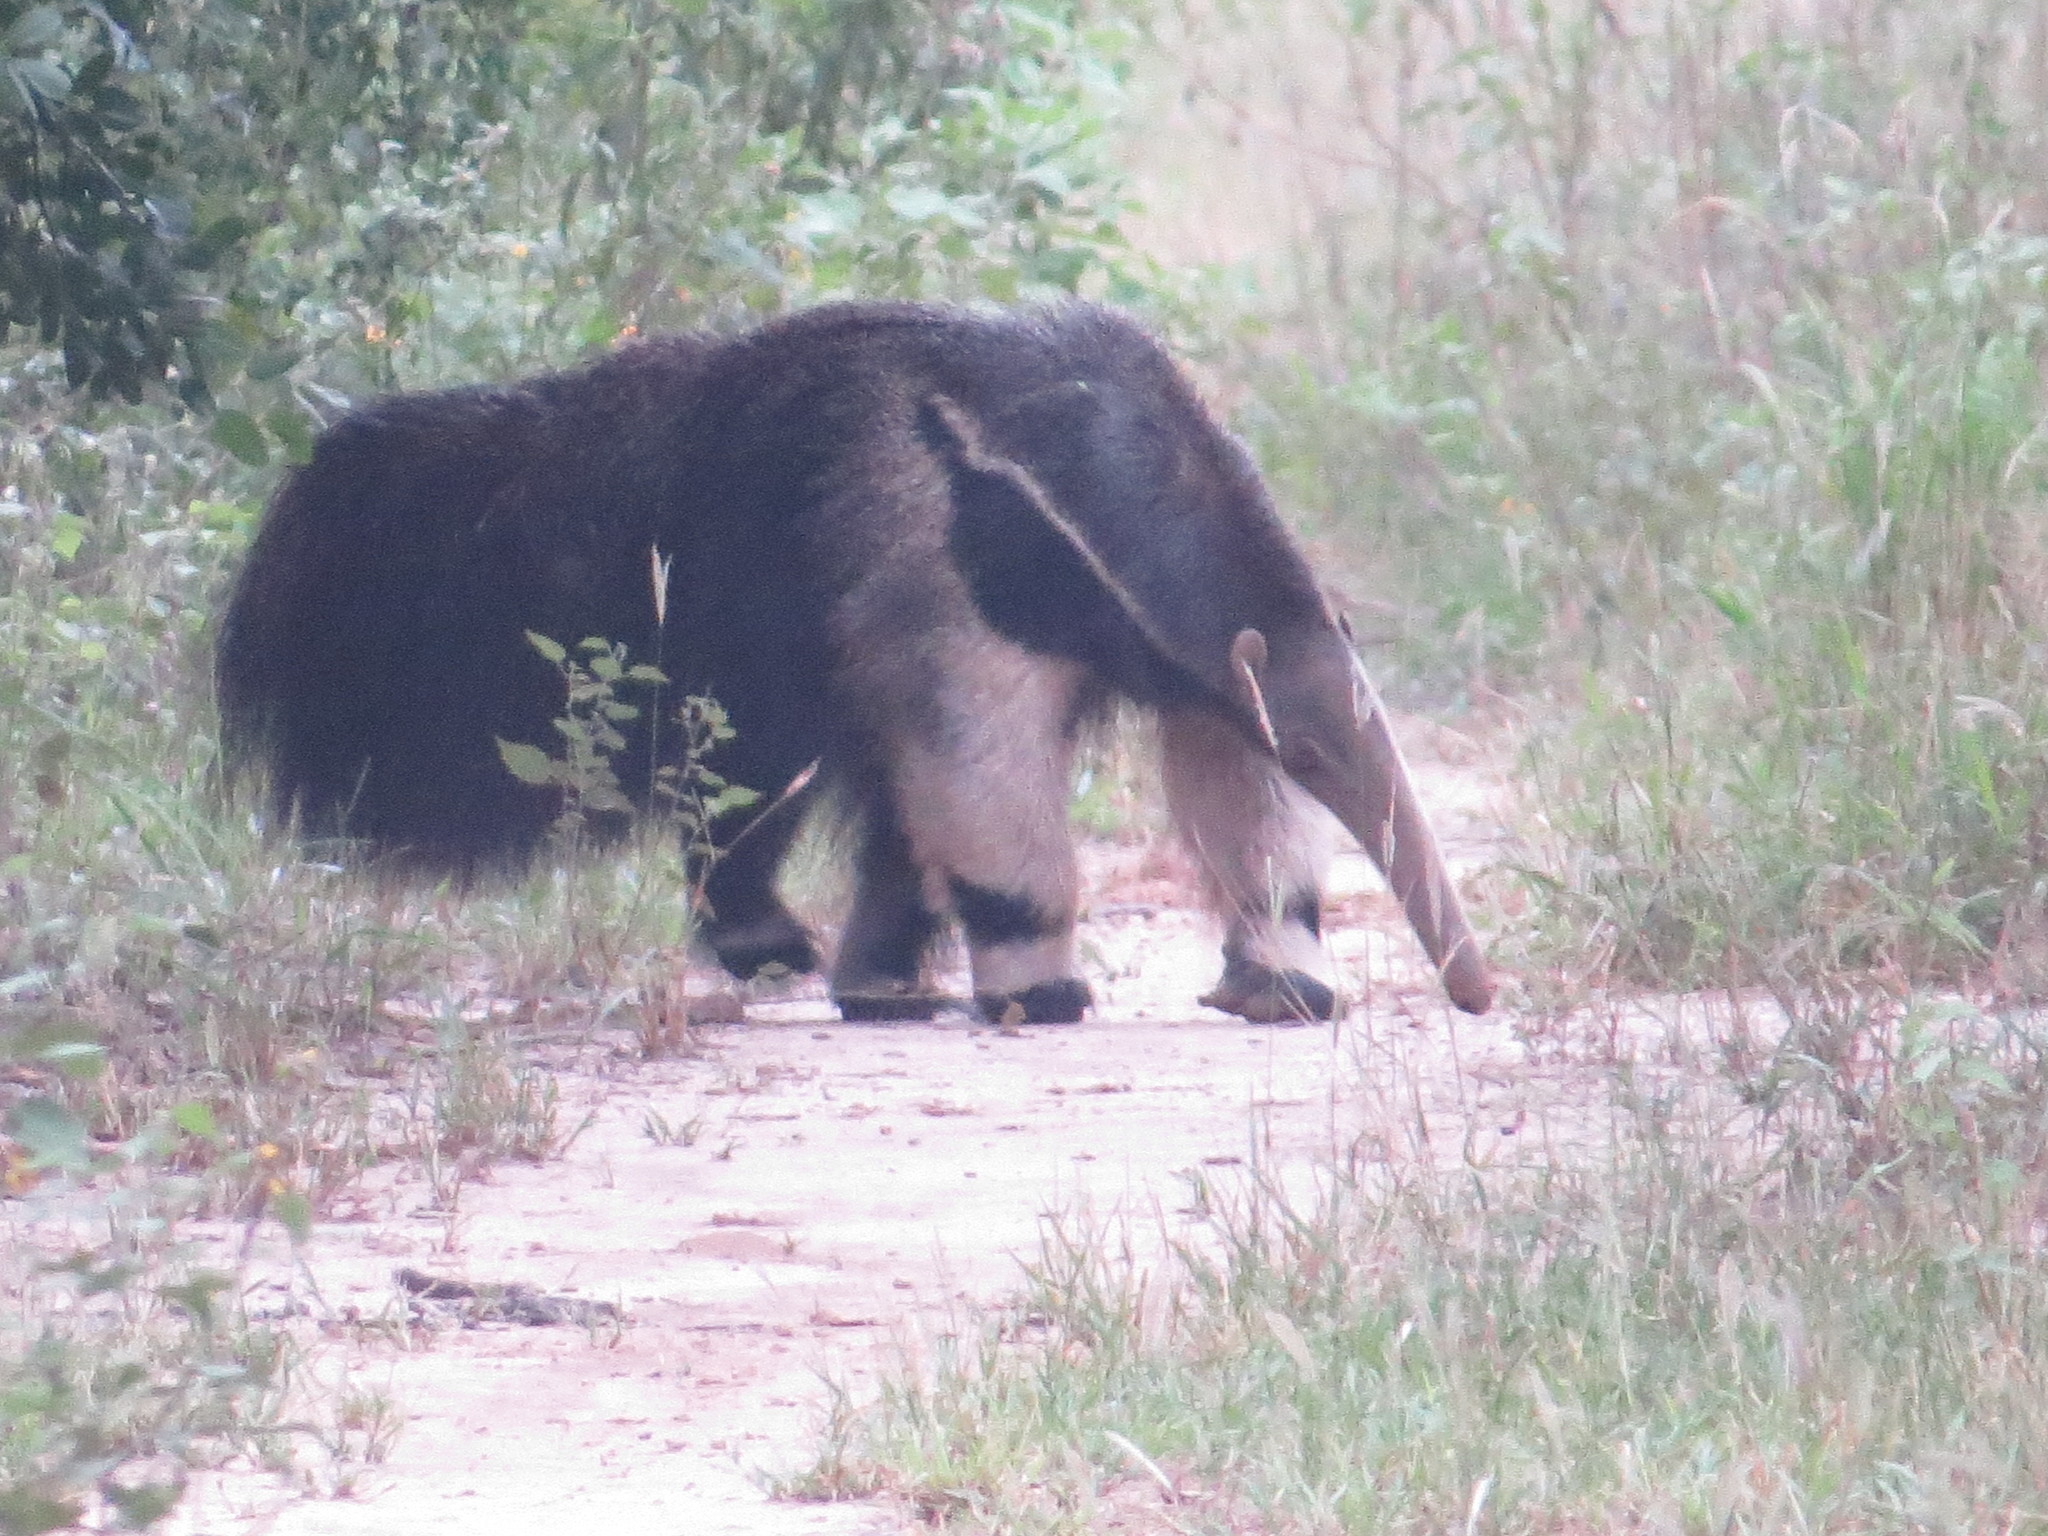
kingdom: Animalia
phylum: Chordata
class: Mammalia
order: Pilosa
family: Myrmecophagidae
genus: Myrmecophaga
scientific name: Myrmecophaga tridactyla
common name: Giant anteater
